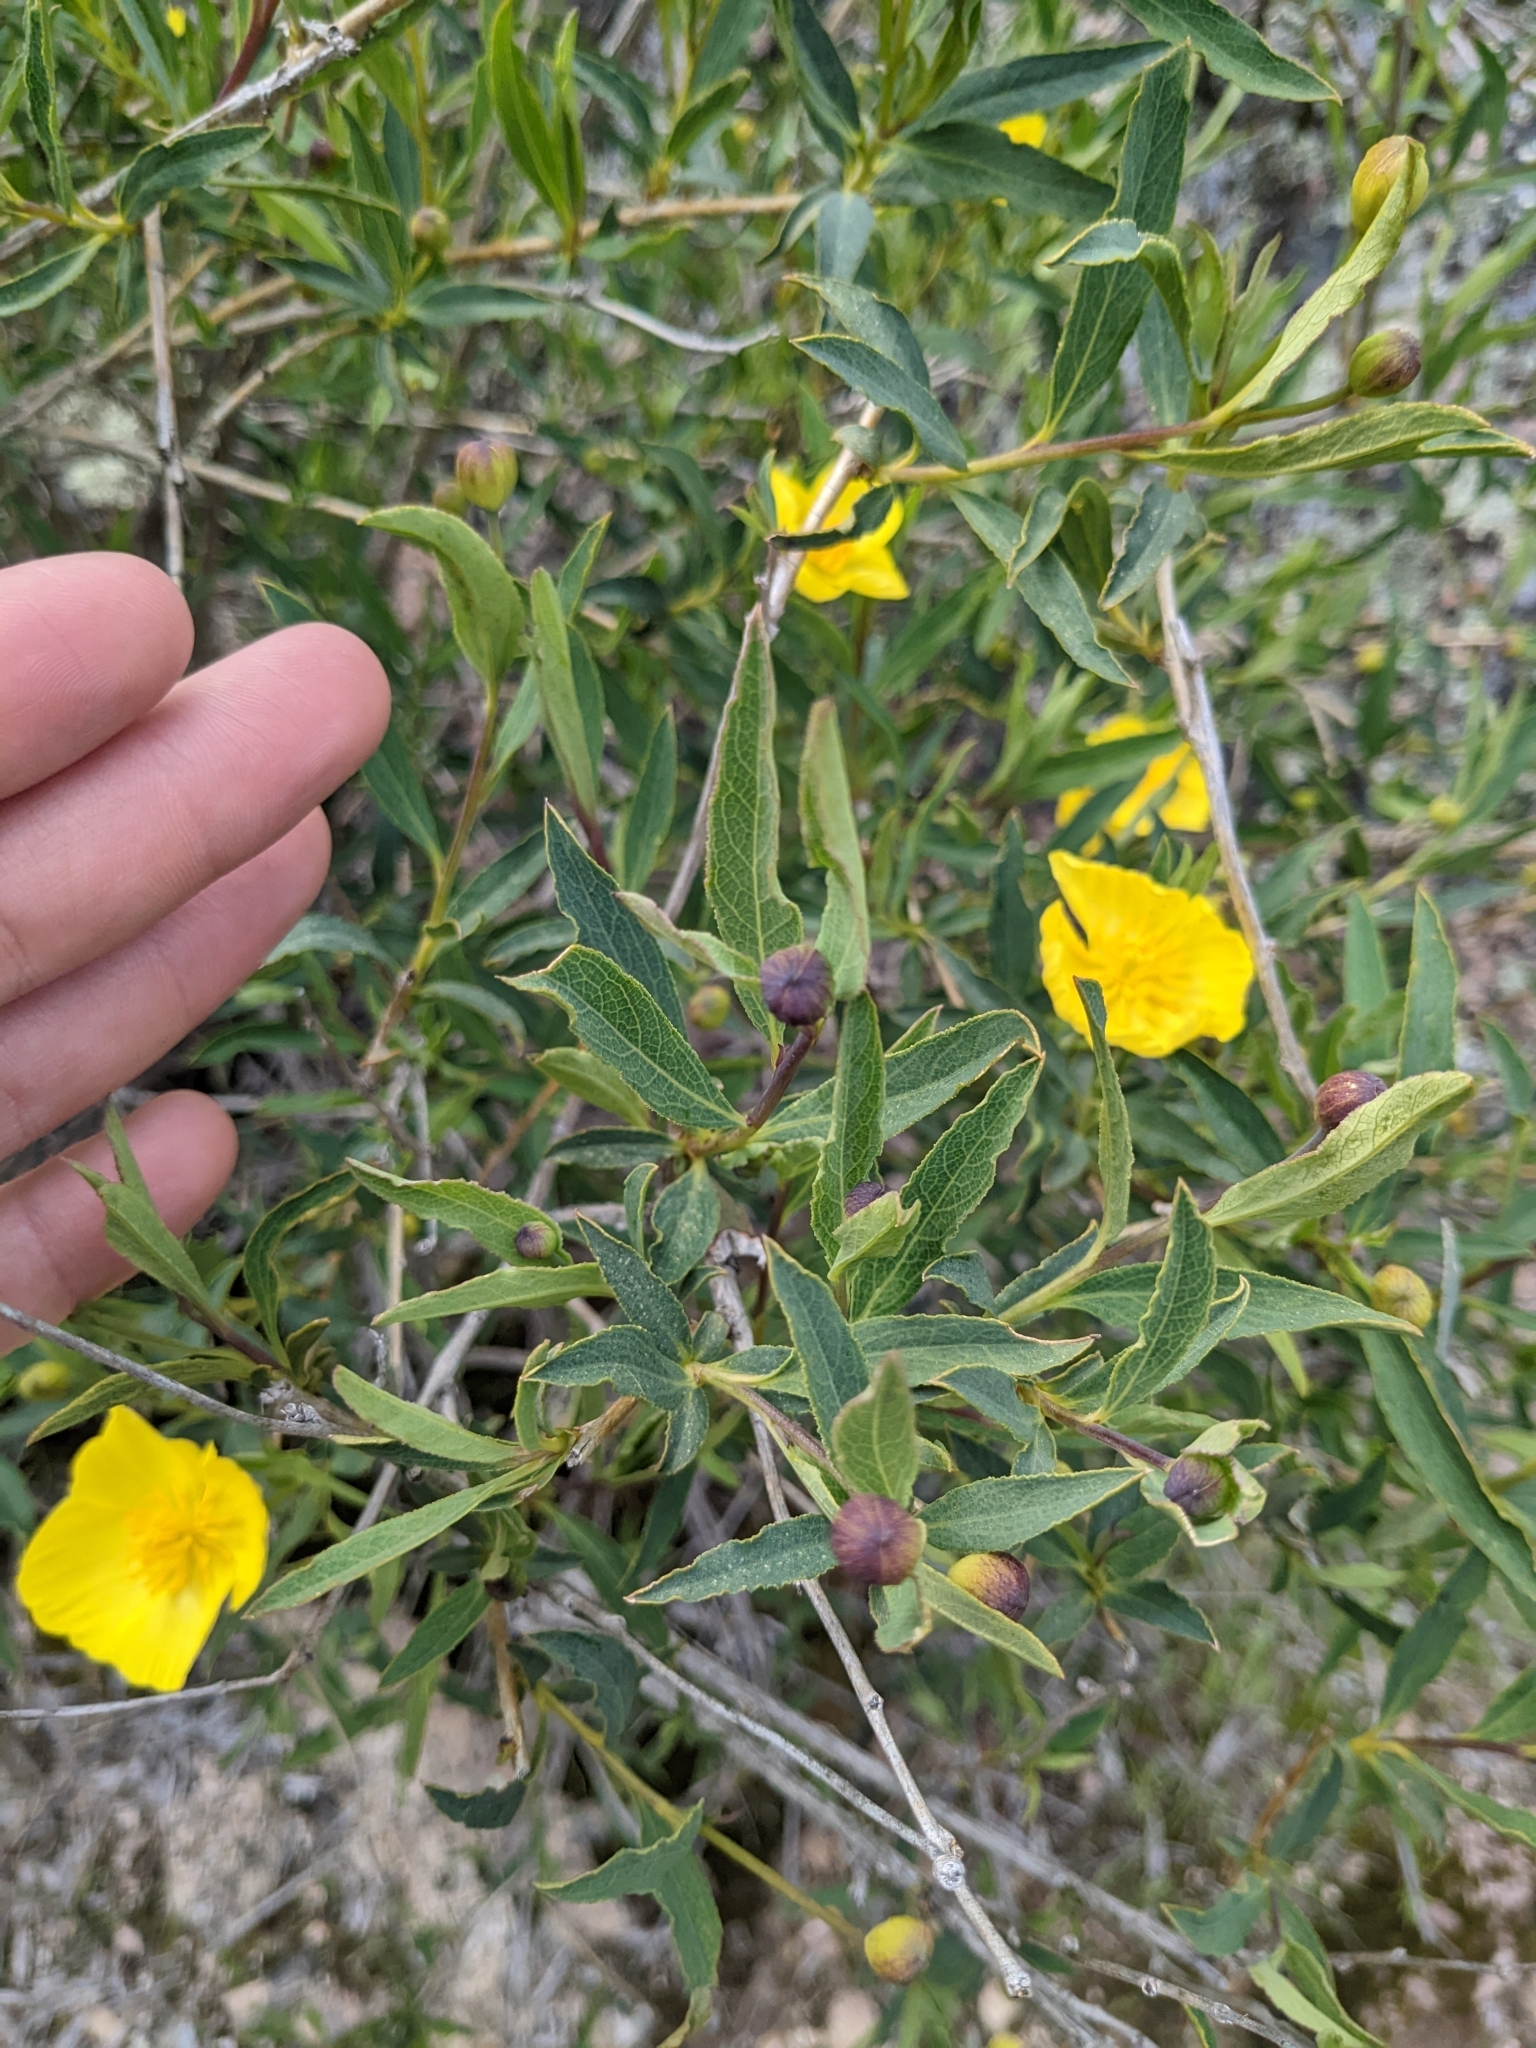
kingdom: Plantae
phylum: Tracheophyta
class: Magnoliopsida
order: Ranunculales
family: Papaveraceae
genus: Dendromecon
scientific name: Dendromecon rigida
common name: Tree poppy
